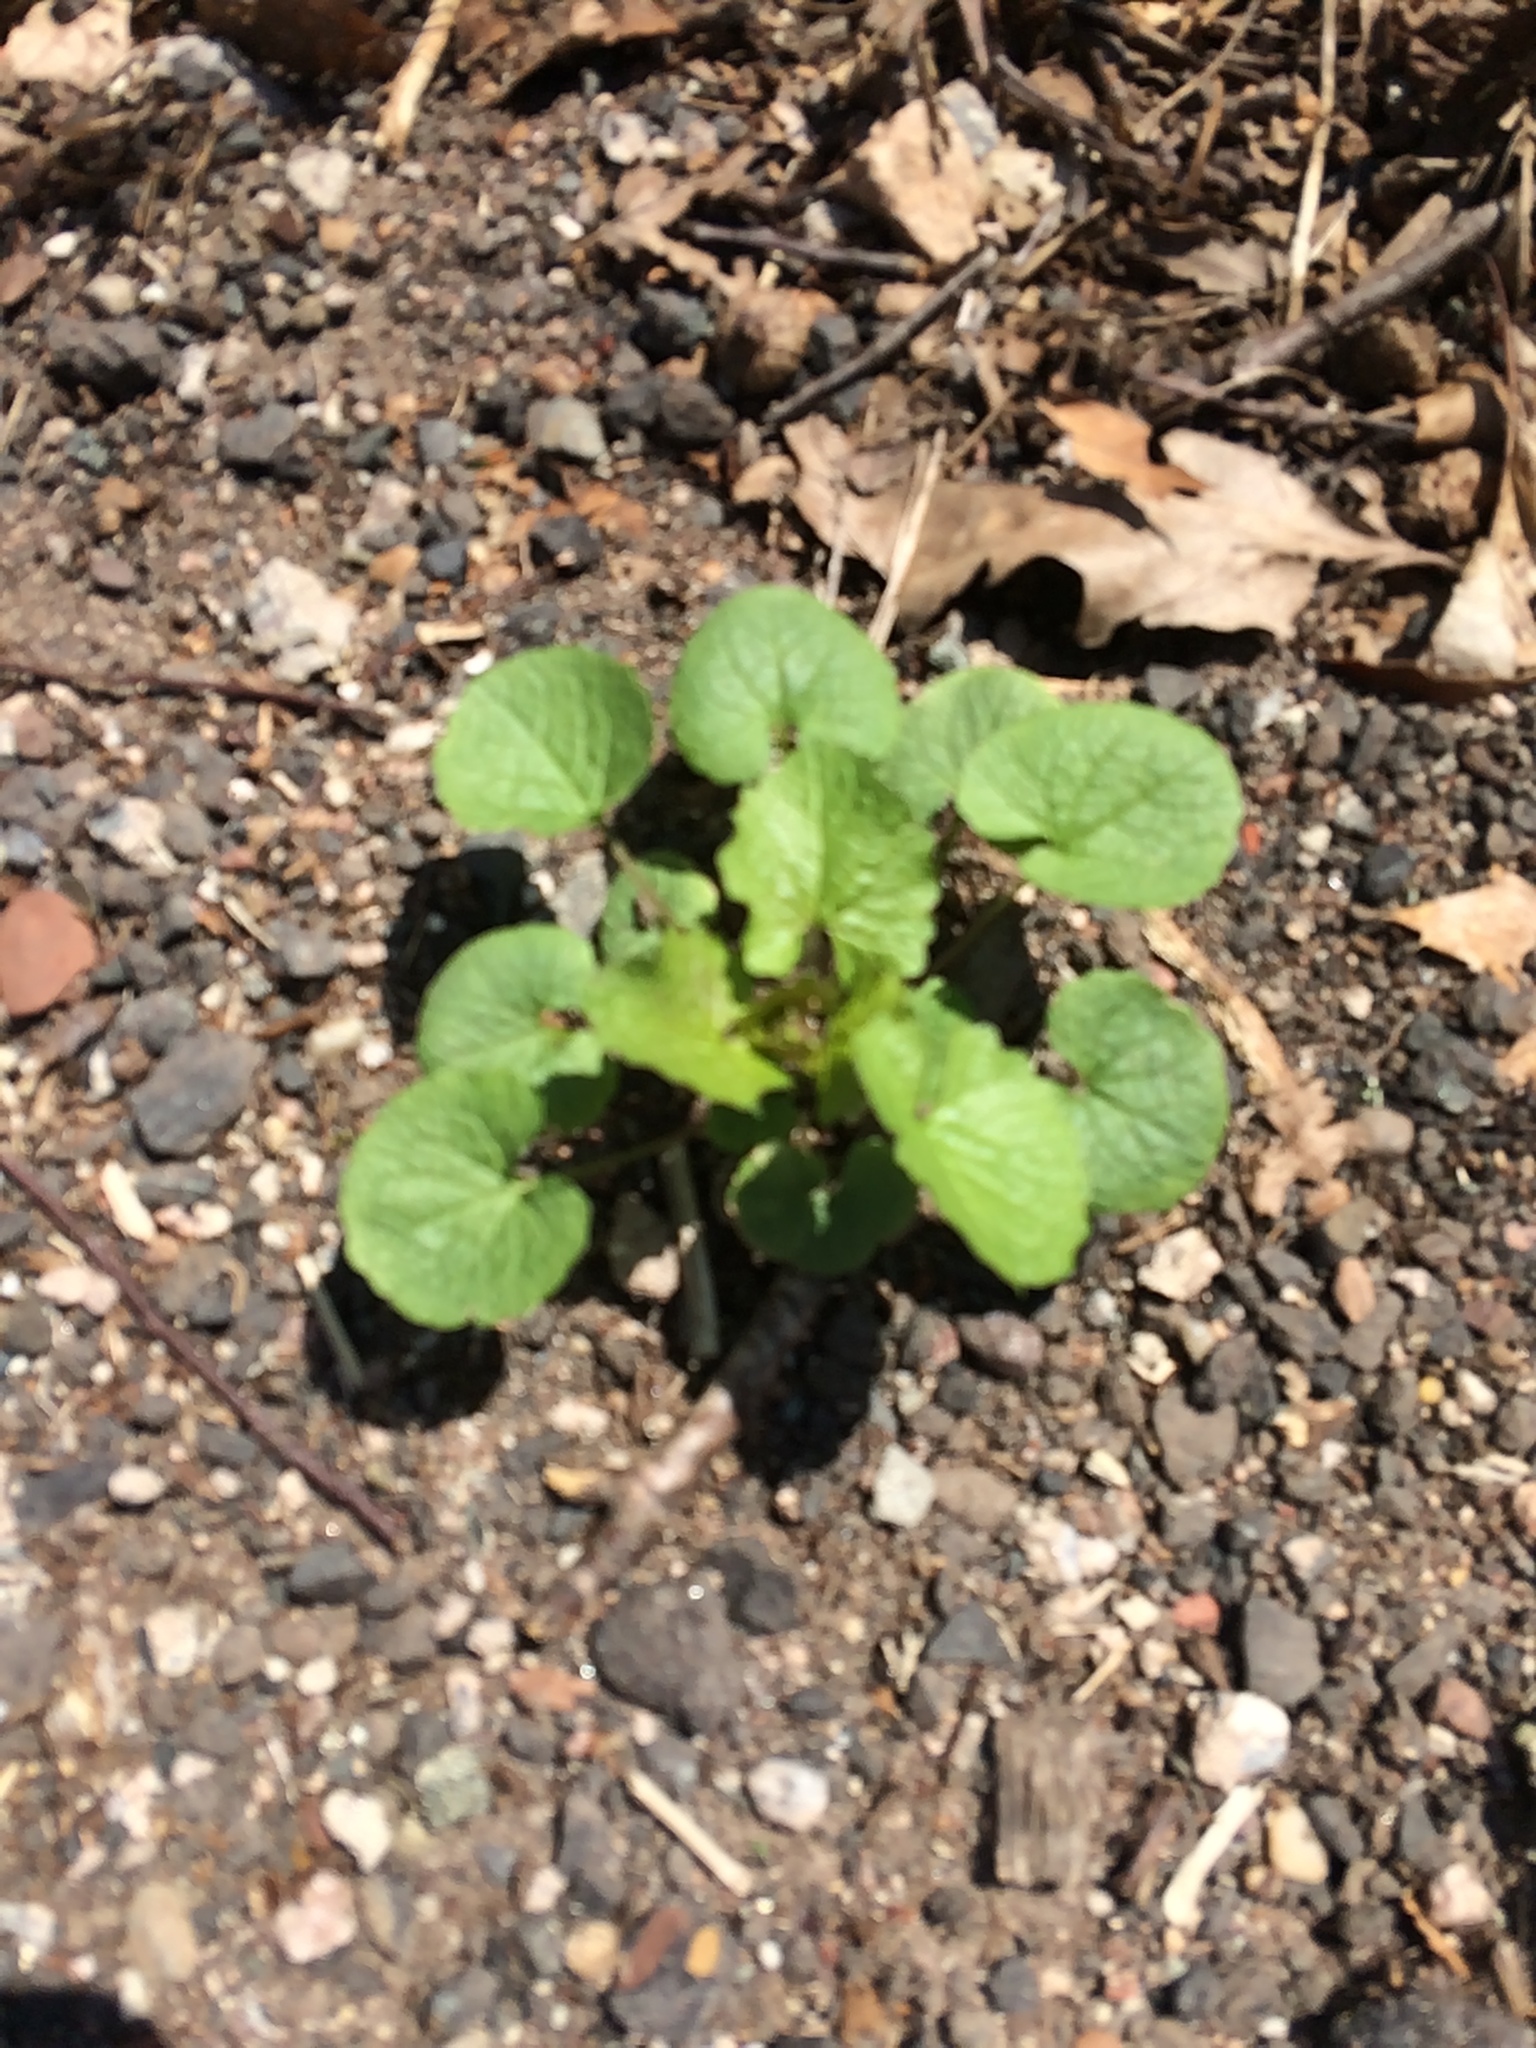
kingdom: Plantae
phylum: Tracheophyta
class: Magnoliopsida
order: Brassicales
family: Brassicaceae
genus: Alliaria
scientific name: Alliaria petiolata
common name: Garlic mustard
